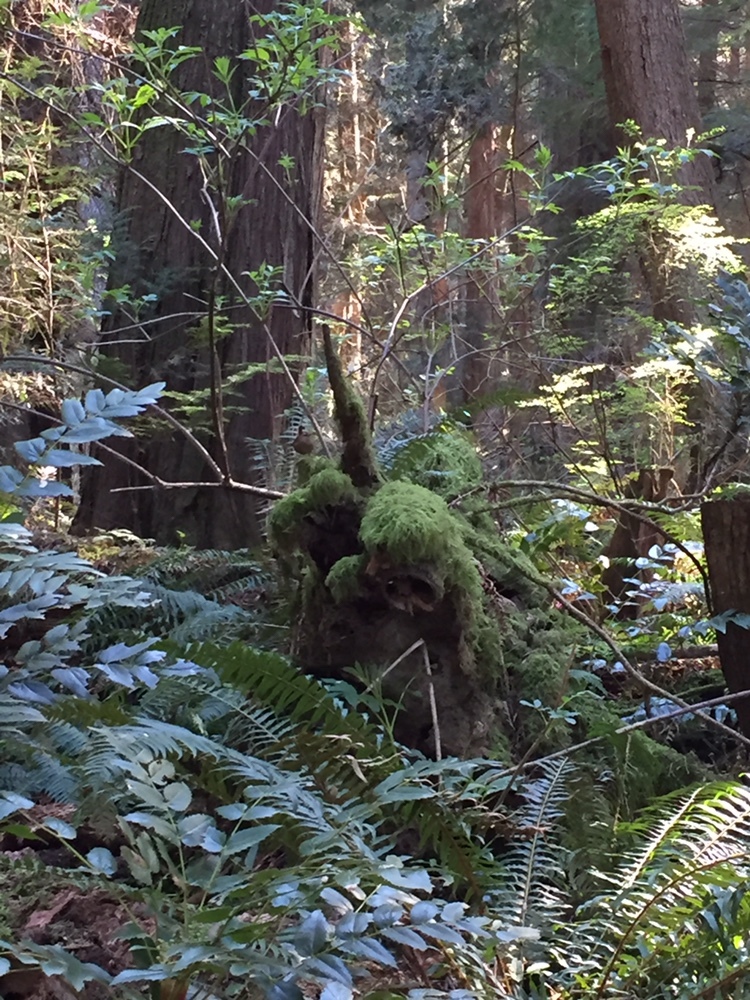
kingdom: Animalia
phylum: Chordata
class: Aves
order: Passeriformes
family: Troglodytidae
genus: Troglodytes
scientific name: Troglodytes pacificus
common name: Pacific wren
